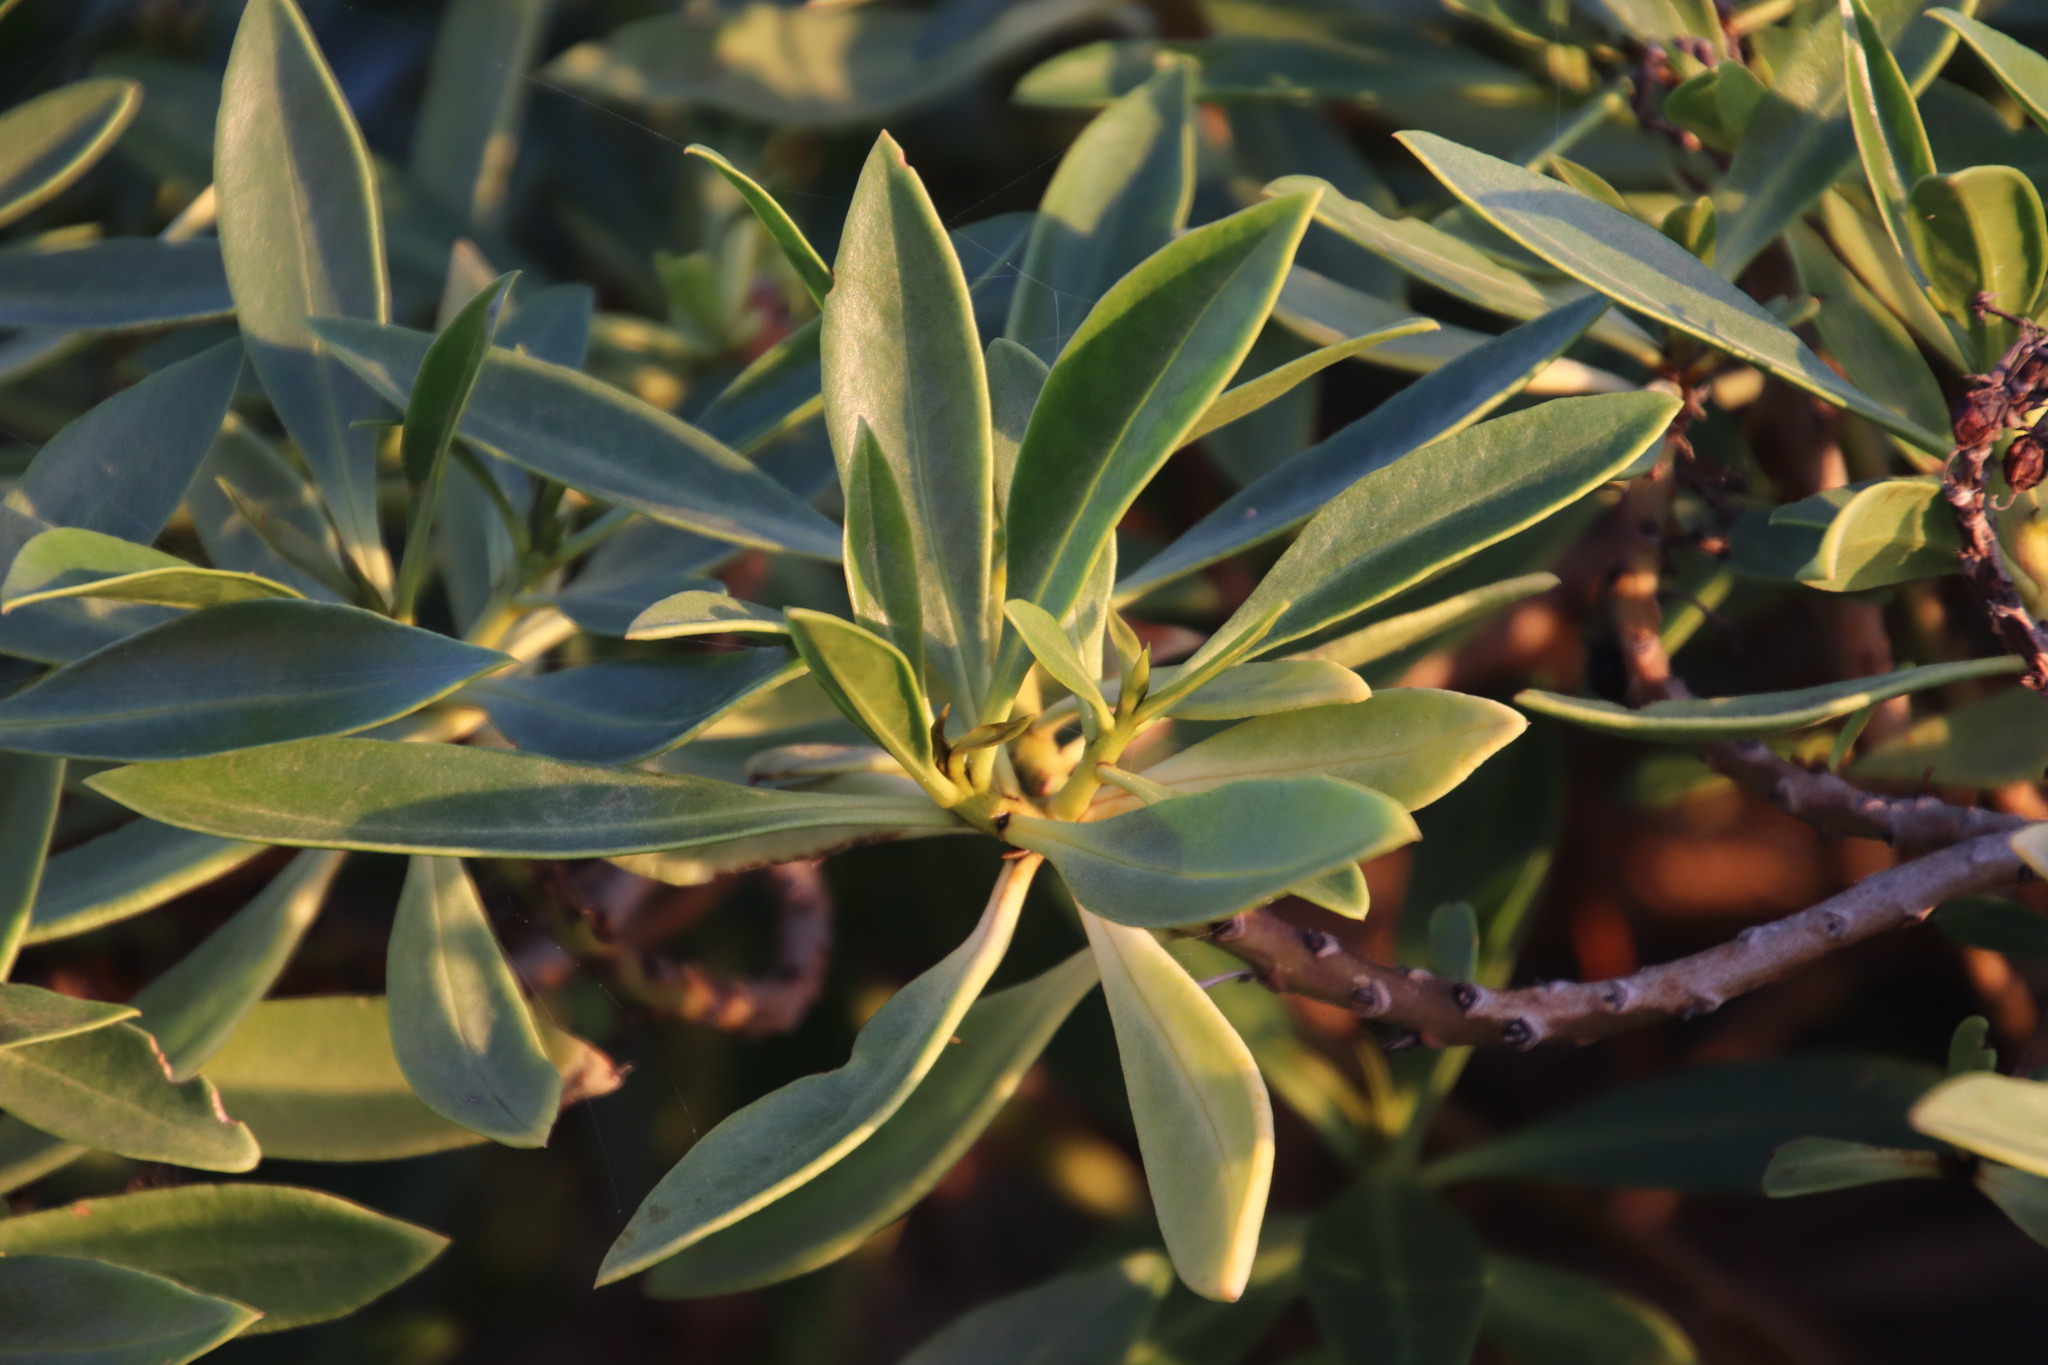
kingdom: Plantae
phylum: Tracheophyta
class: Magnoliopsida
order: Asterales
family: Asteraceae
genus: Didelta
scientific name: Didelta carnosa
